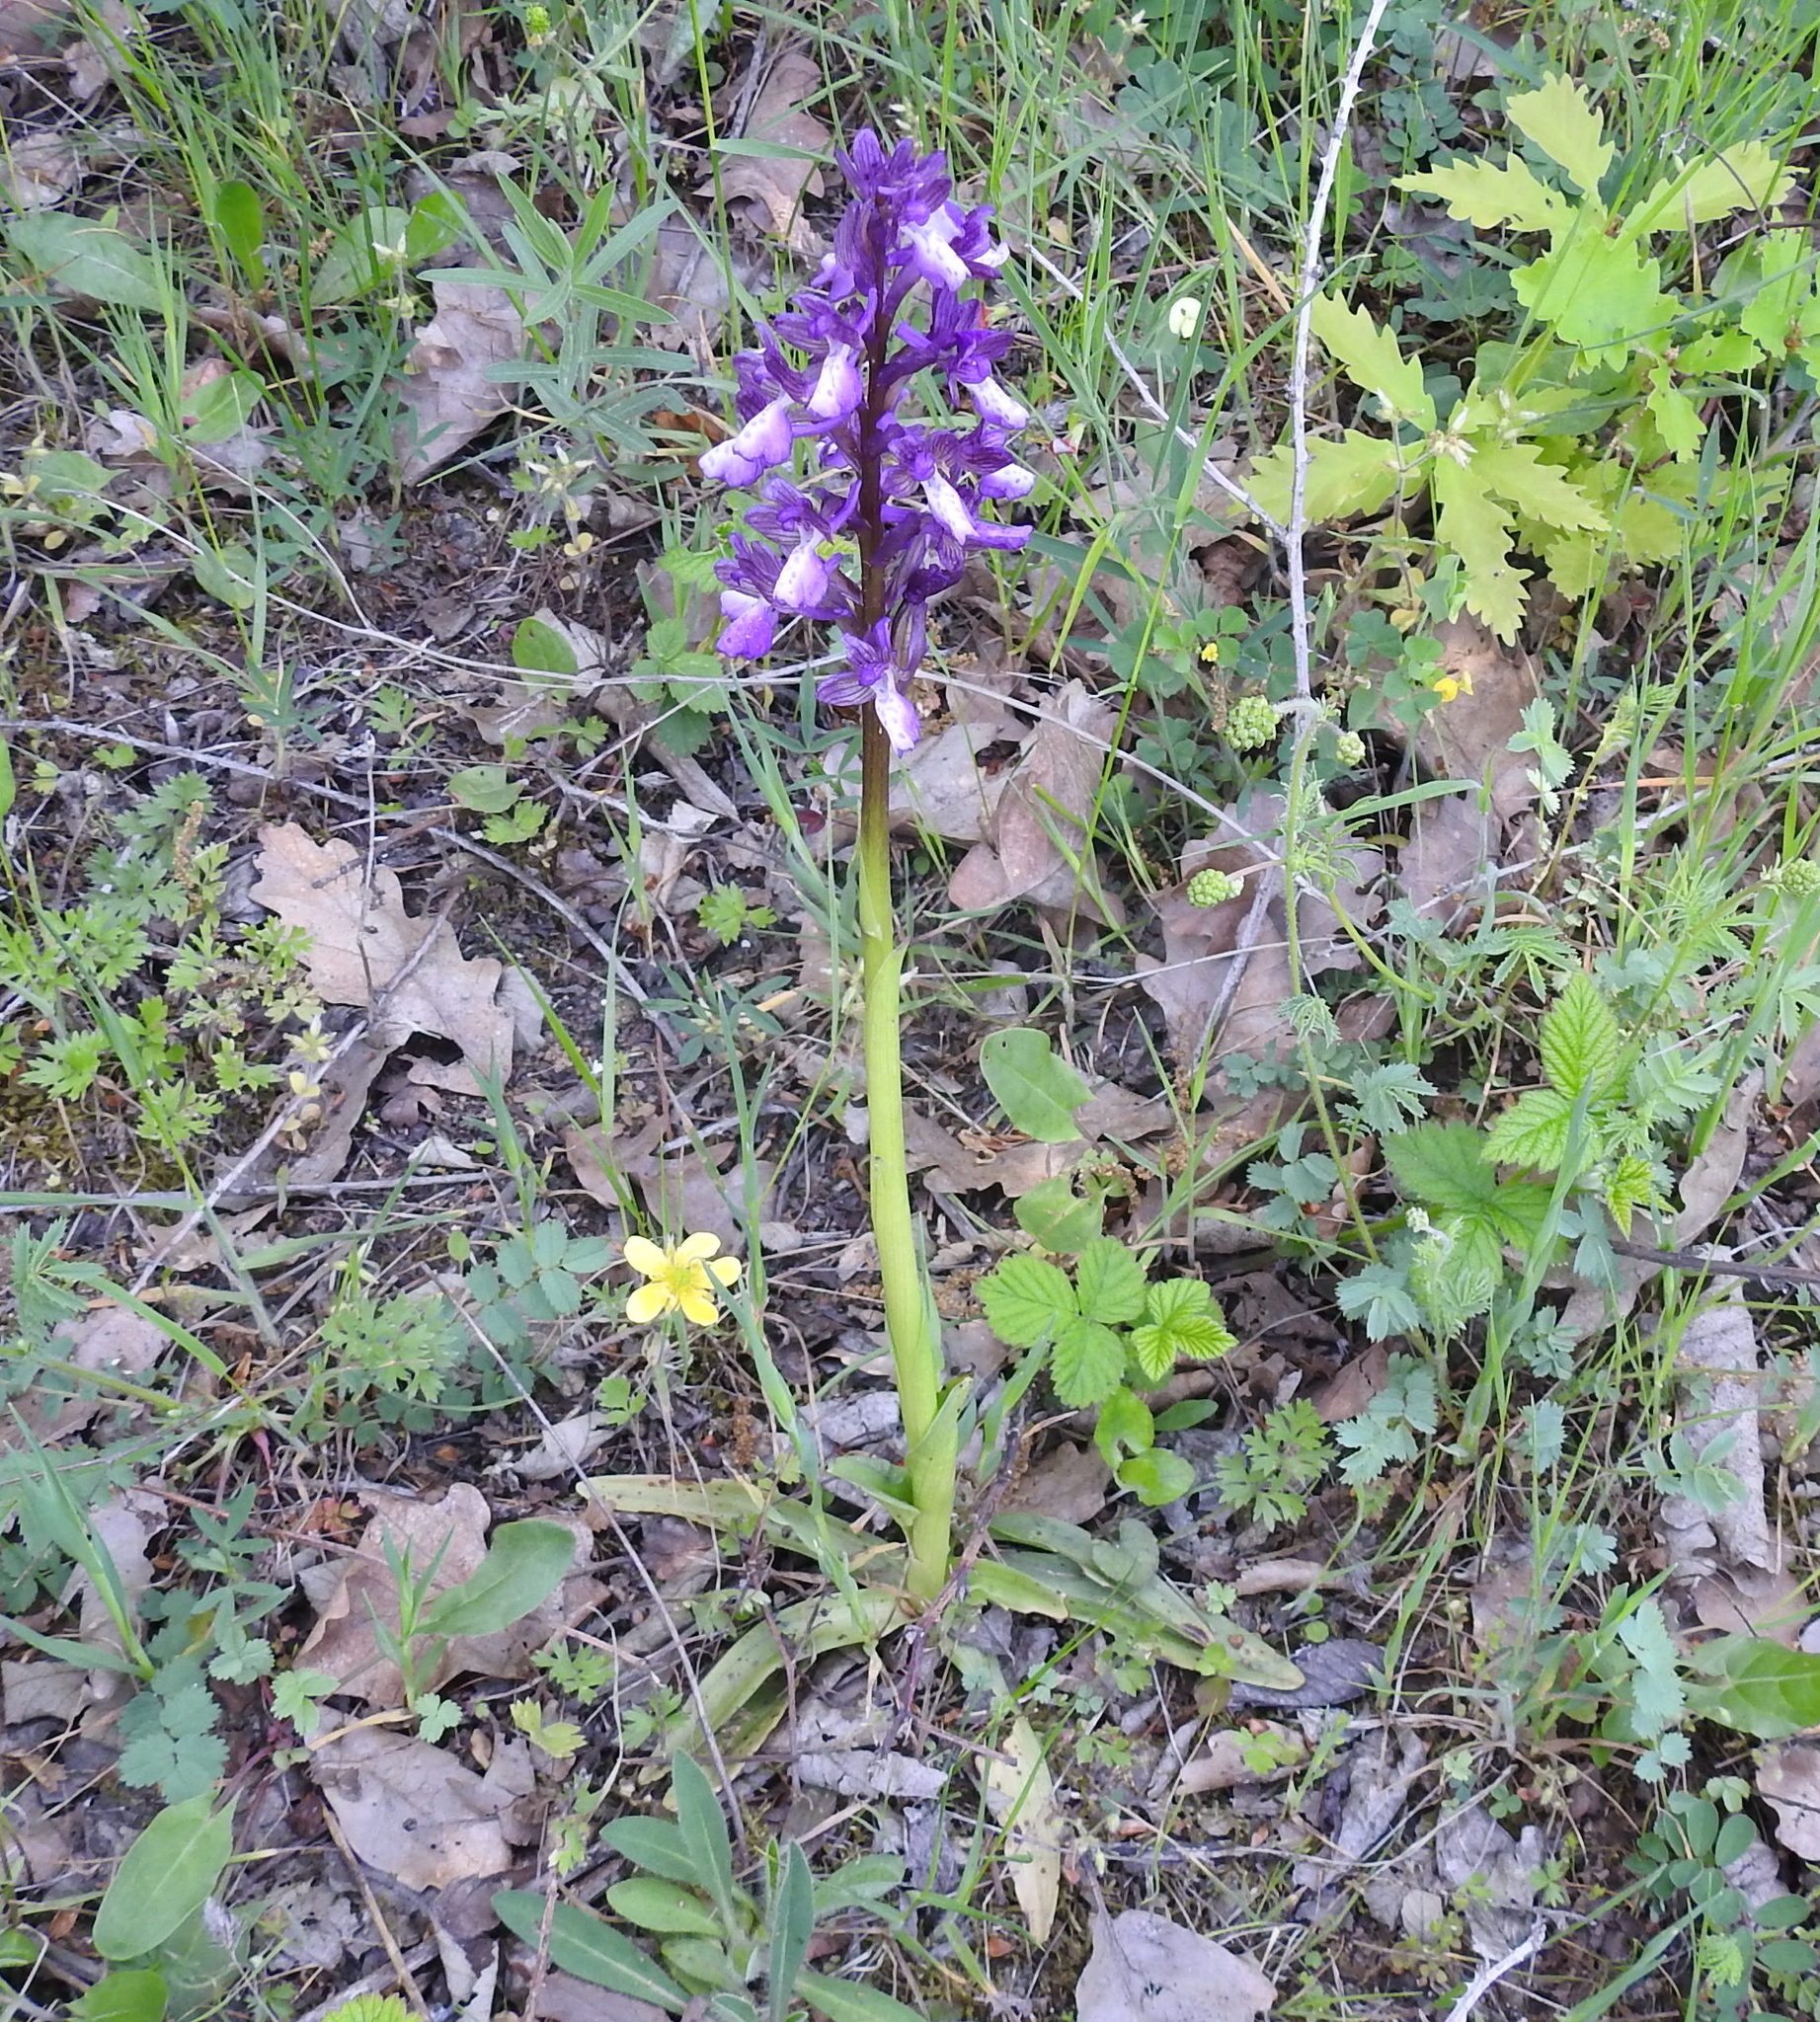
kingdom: Plantae
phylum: Tracheophyta
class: Liliopsida
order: Asparagales
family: Orchidaceae
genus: Anacamptis
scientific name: Anacamptis morio
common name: Green-winged orchid
